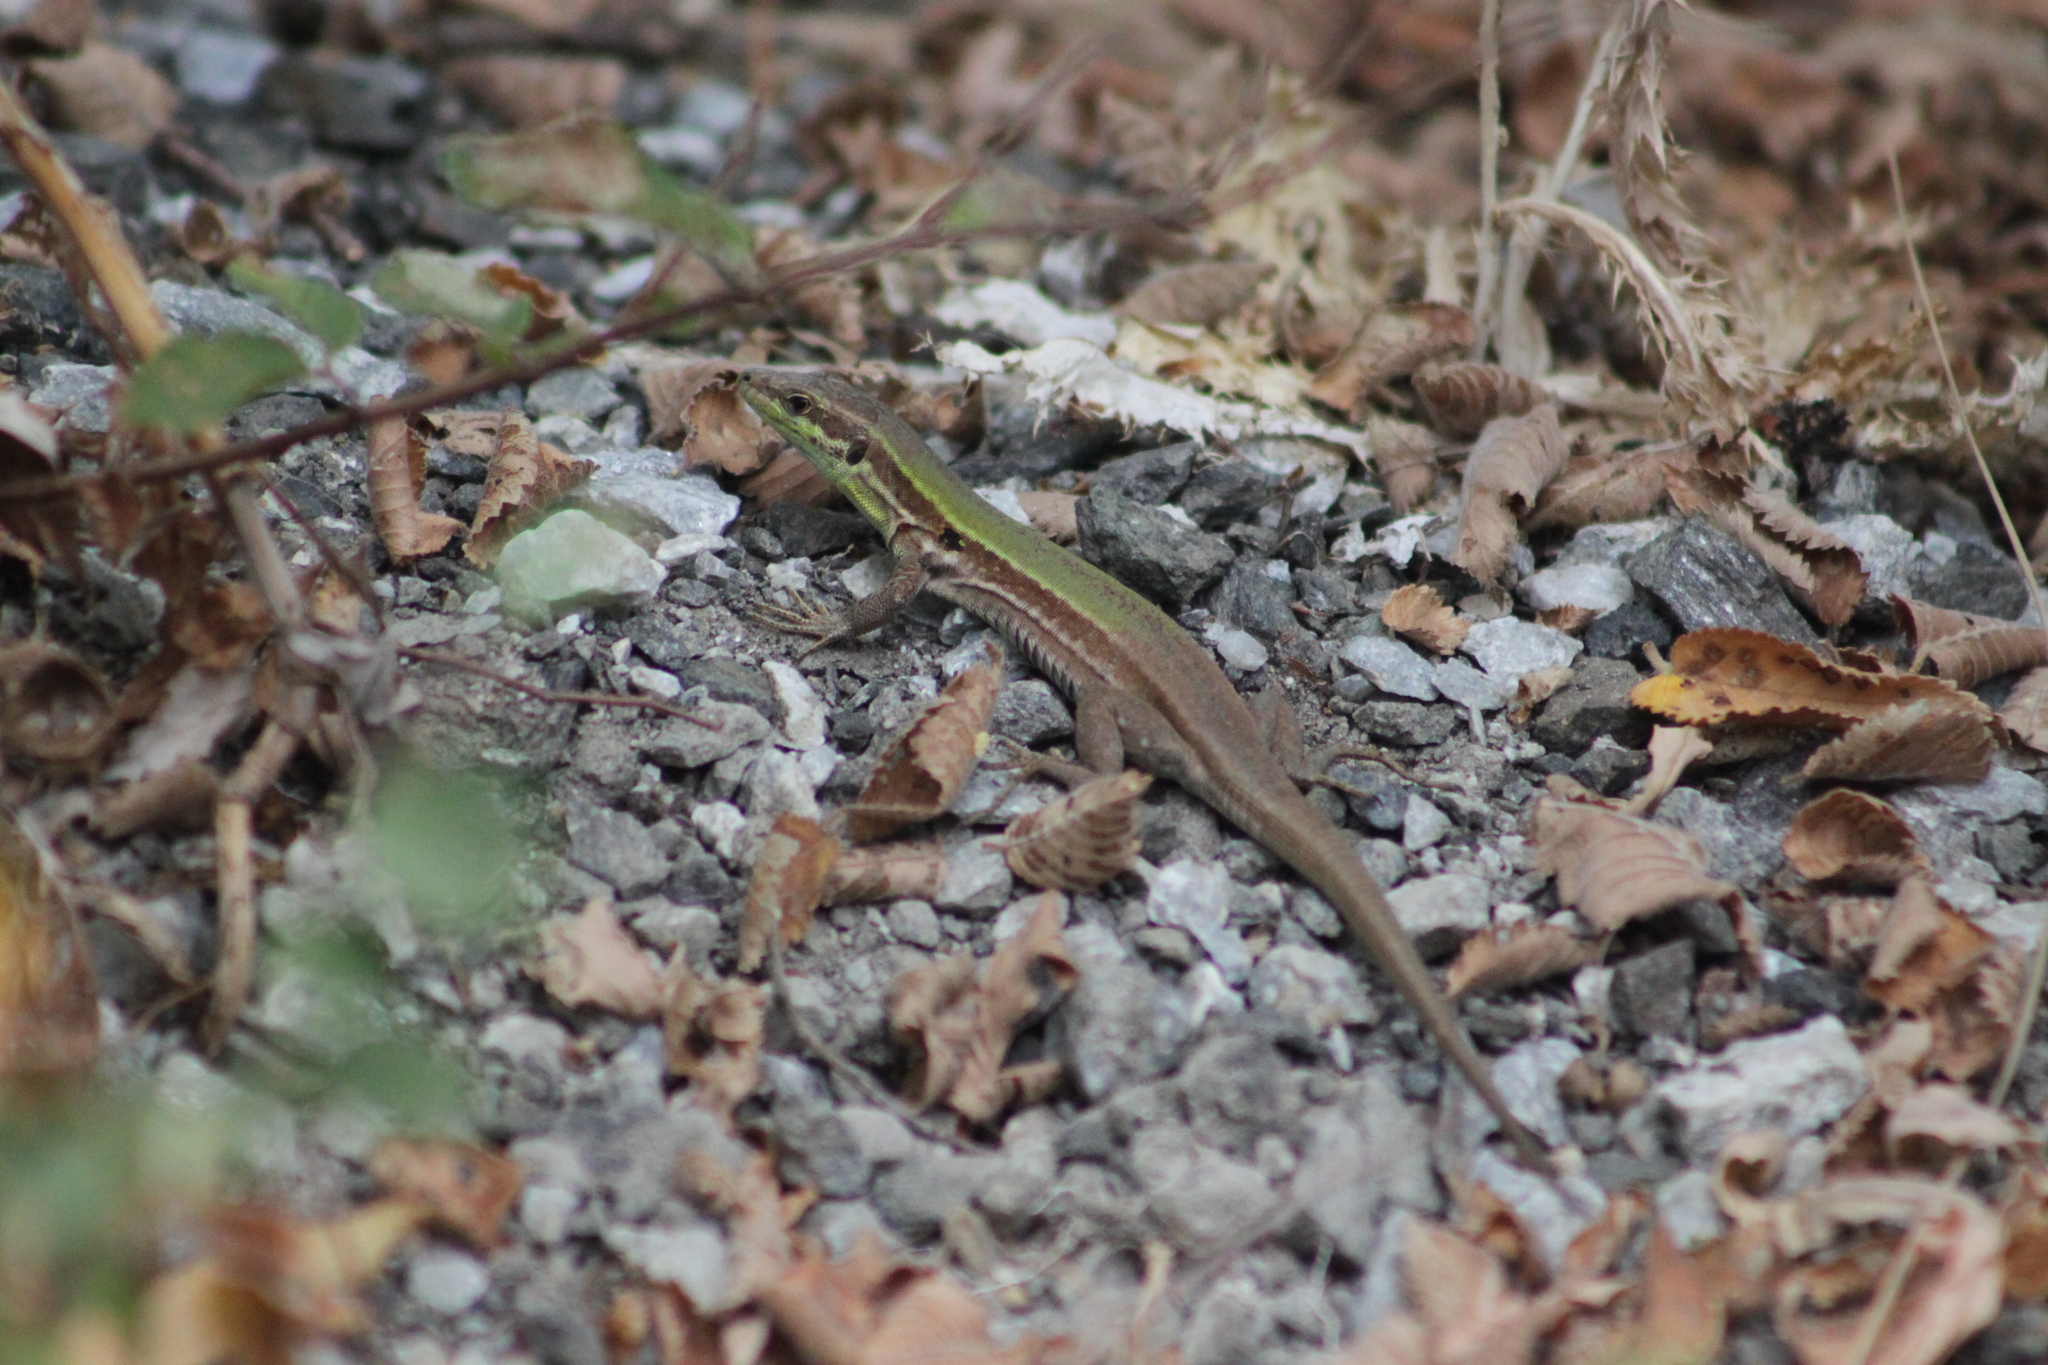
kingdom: Animalia
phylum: Chordata
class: Squamata
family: Lacertidae
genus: Podarcis
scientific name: Podarcis siculus
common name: Italian wall lizard
